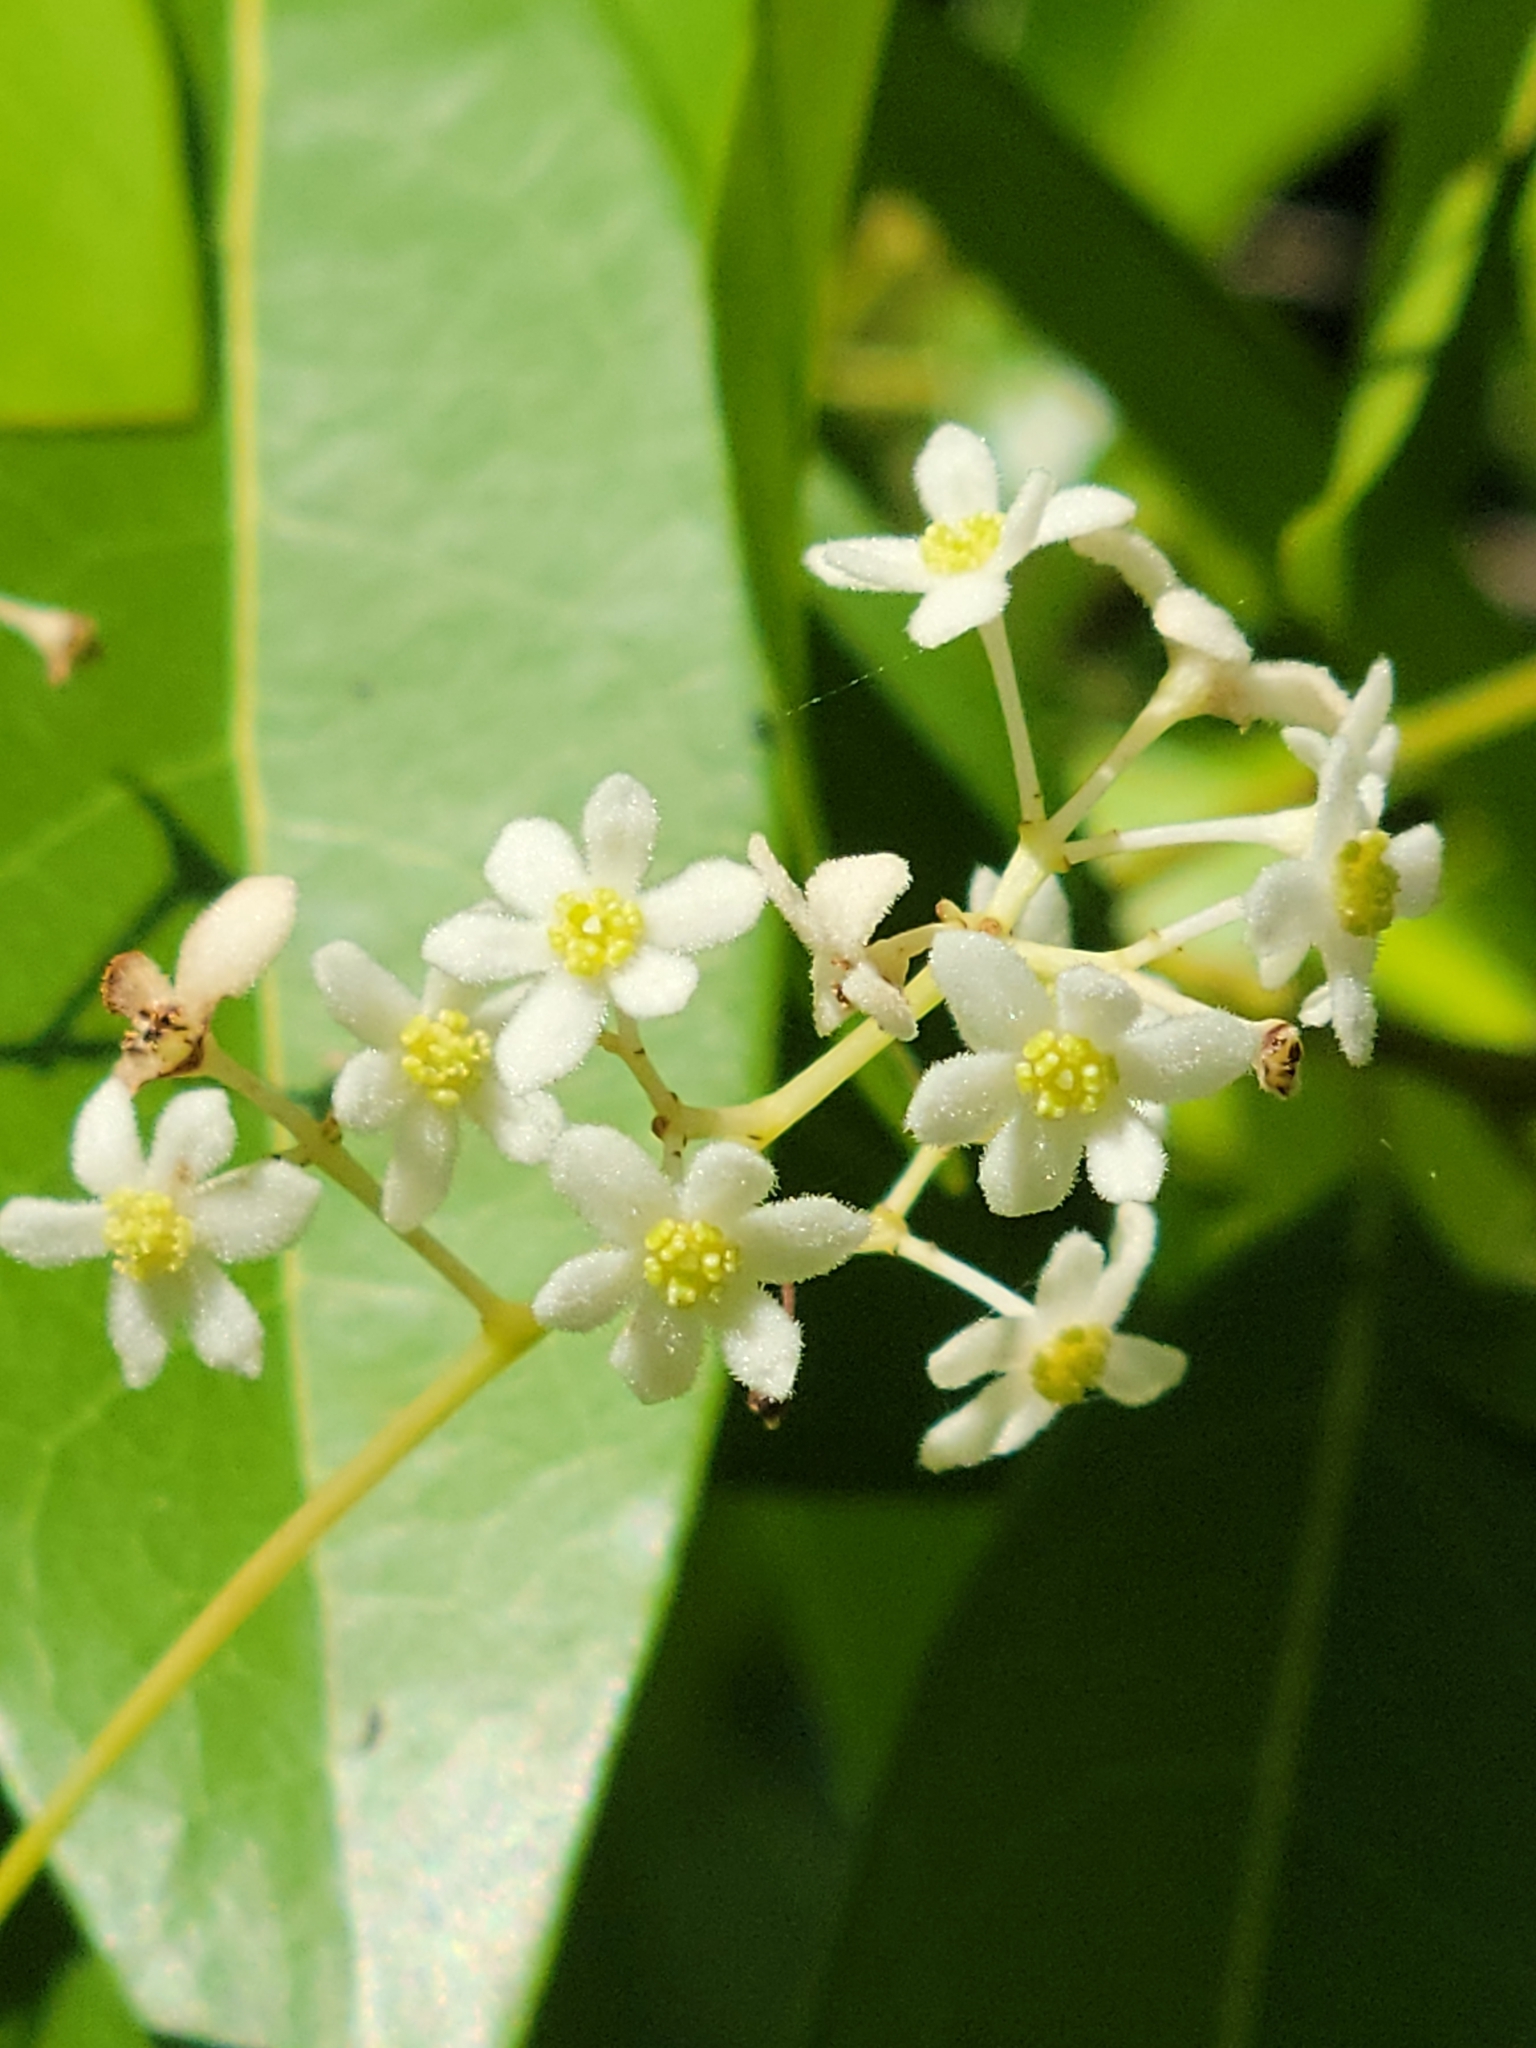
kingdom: Plantae
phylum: Tracheophyta
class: Magnoliopsida
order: Laurales
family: Lauraceae
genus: Damburneya
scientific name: Damburneya
